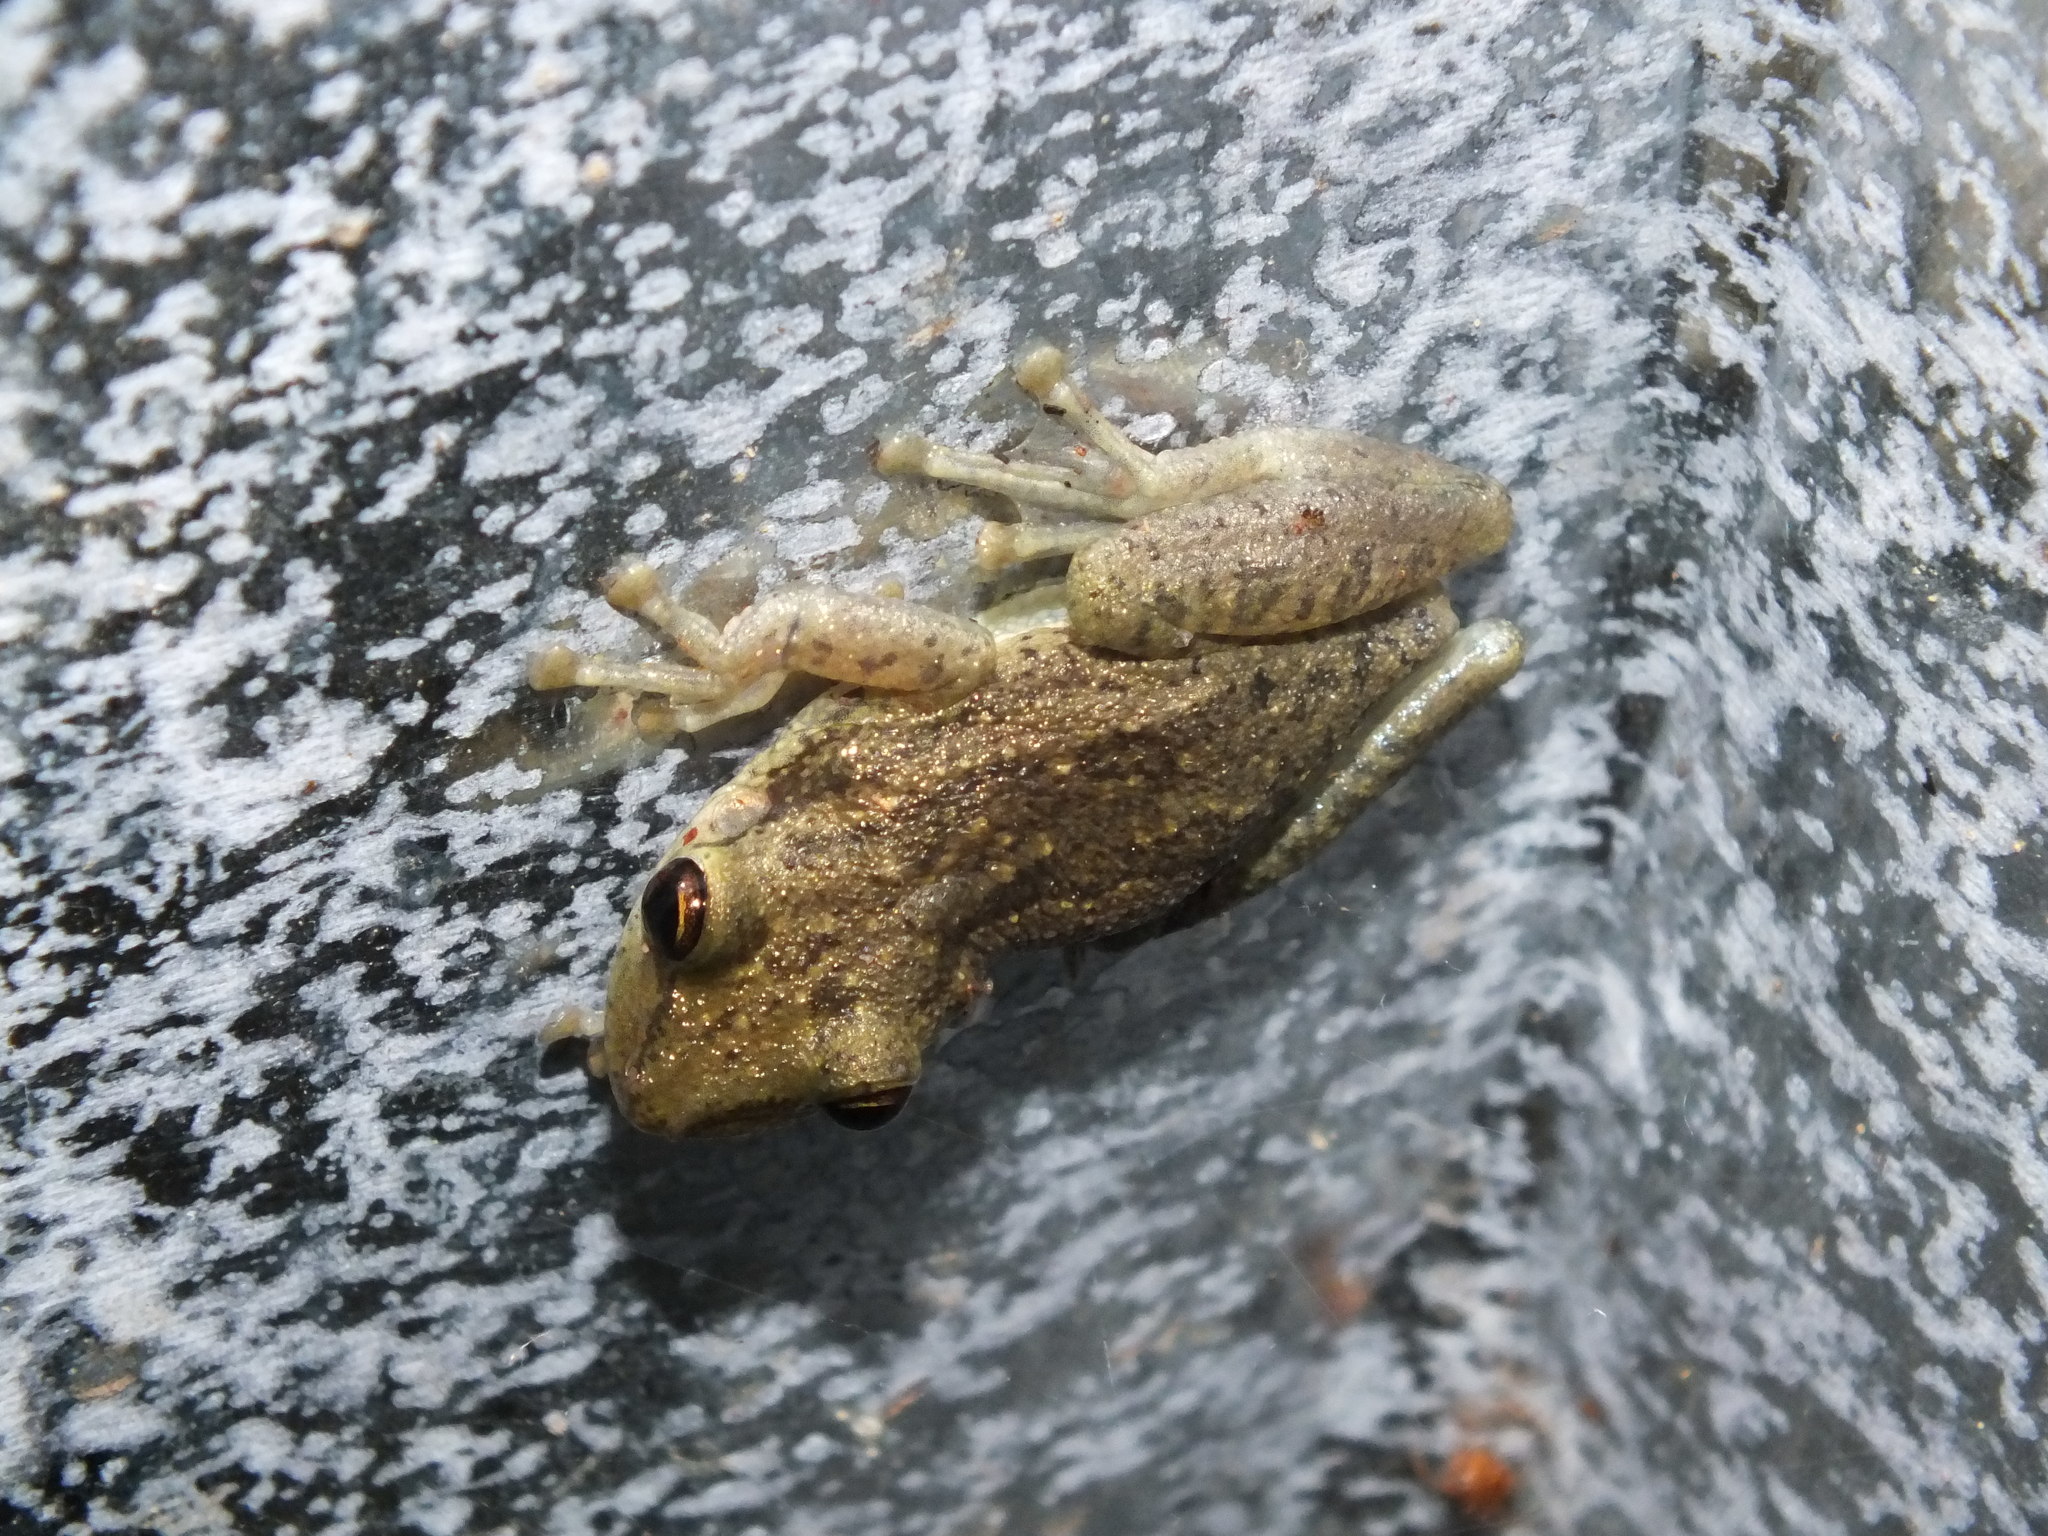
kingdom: Animalia
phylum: Chordata
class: Amphibia
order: Anura
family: Hylidae
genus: Scinax
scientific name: Scinax ruber
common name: Red snouted treefrog
